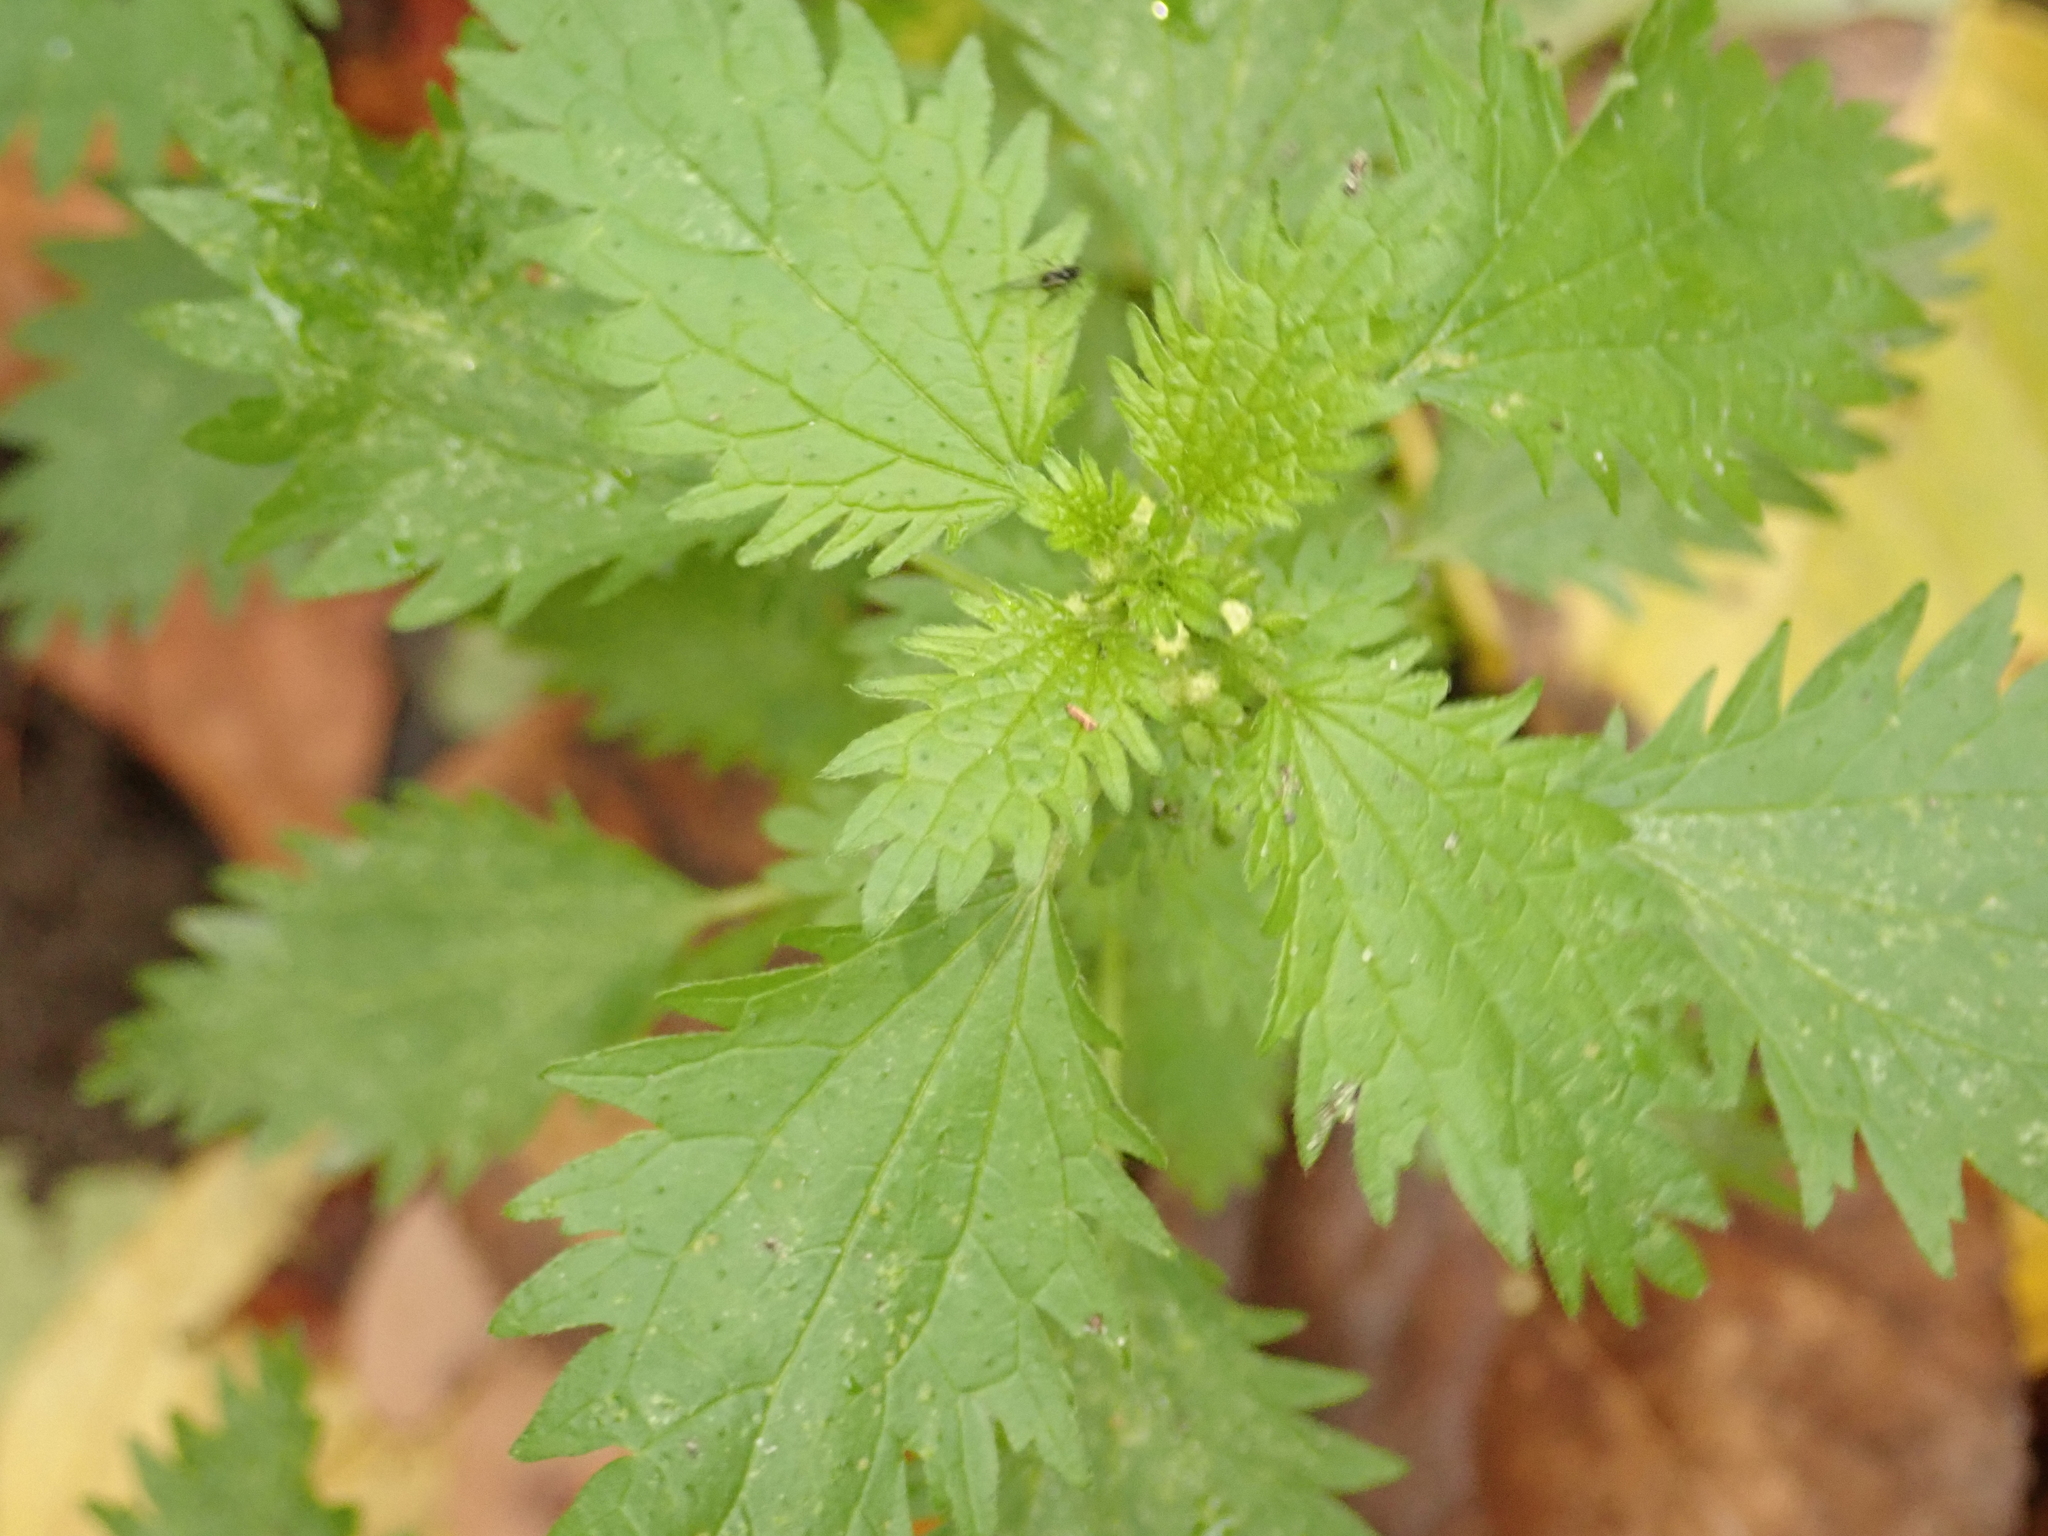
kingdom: Plantae
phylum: Tracheophyta
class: Magnoliopsida
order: Rosales
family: Urticaceae
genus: Urtica
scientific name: Urtica urens
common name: Dwarf nettle
